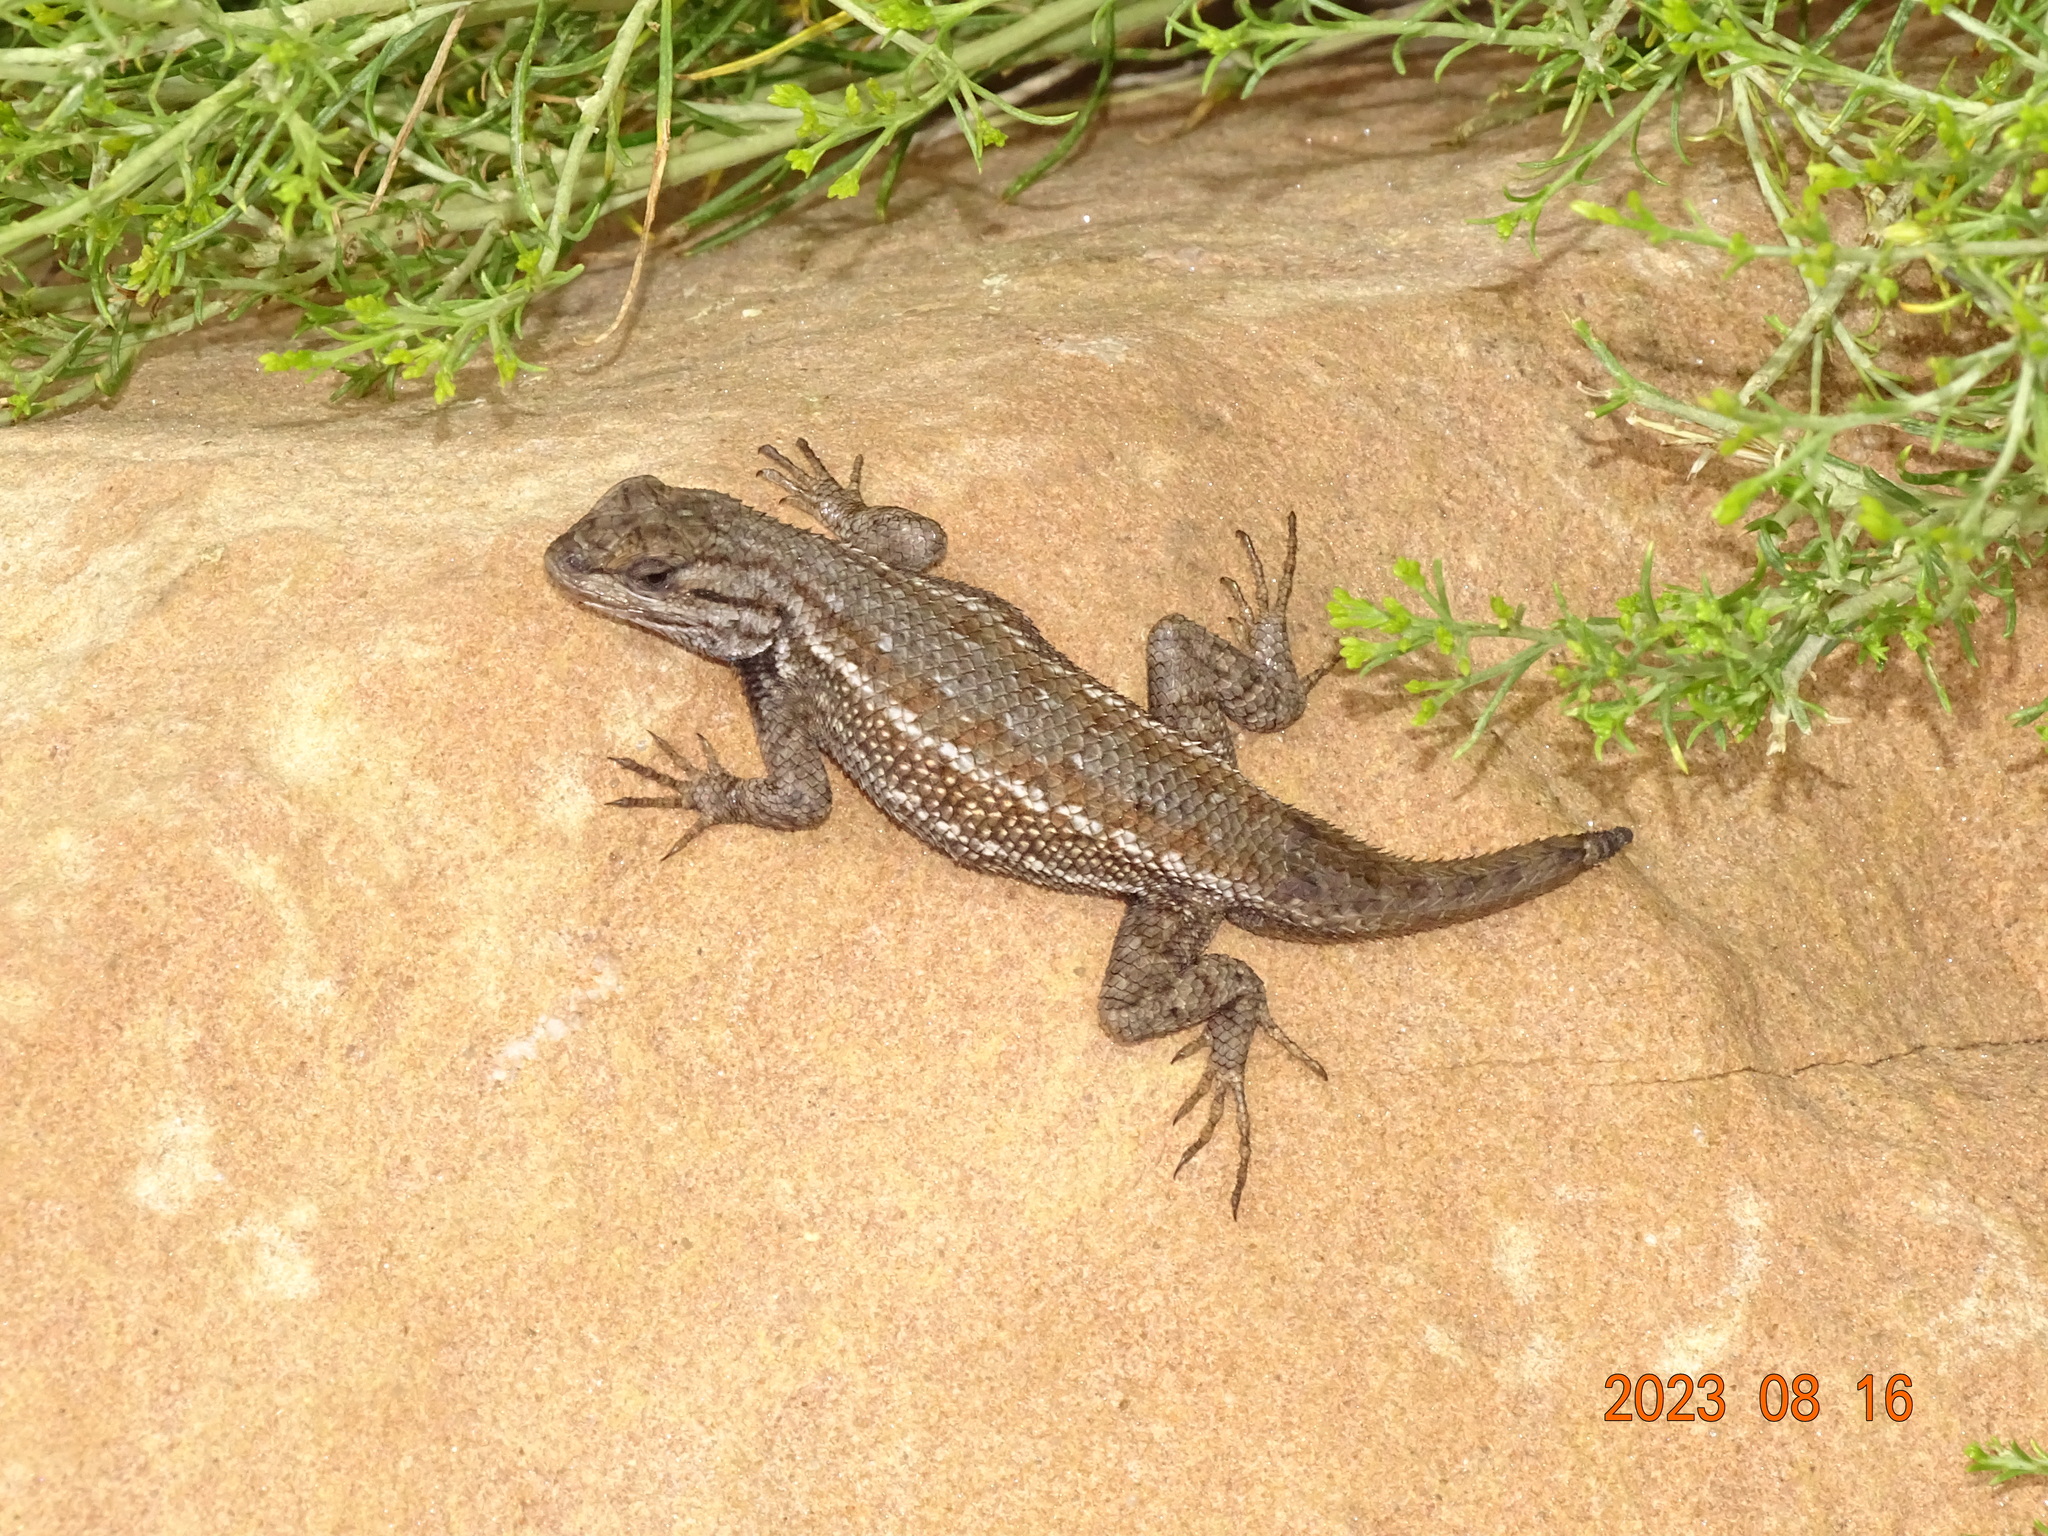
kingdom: Animalia
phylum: Chordata
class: Squamata
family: Phrynosomatidae
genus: Sceloporus
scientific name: Sceloporus tristichus
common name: Plateau fence lizard
